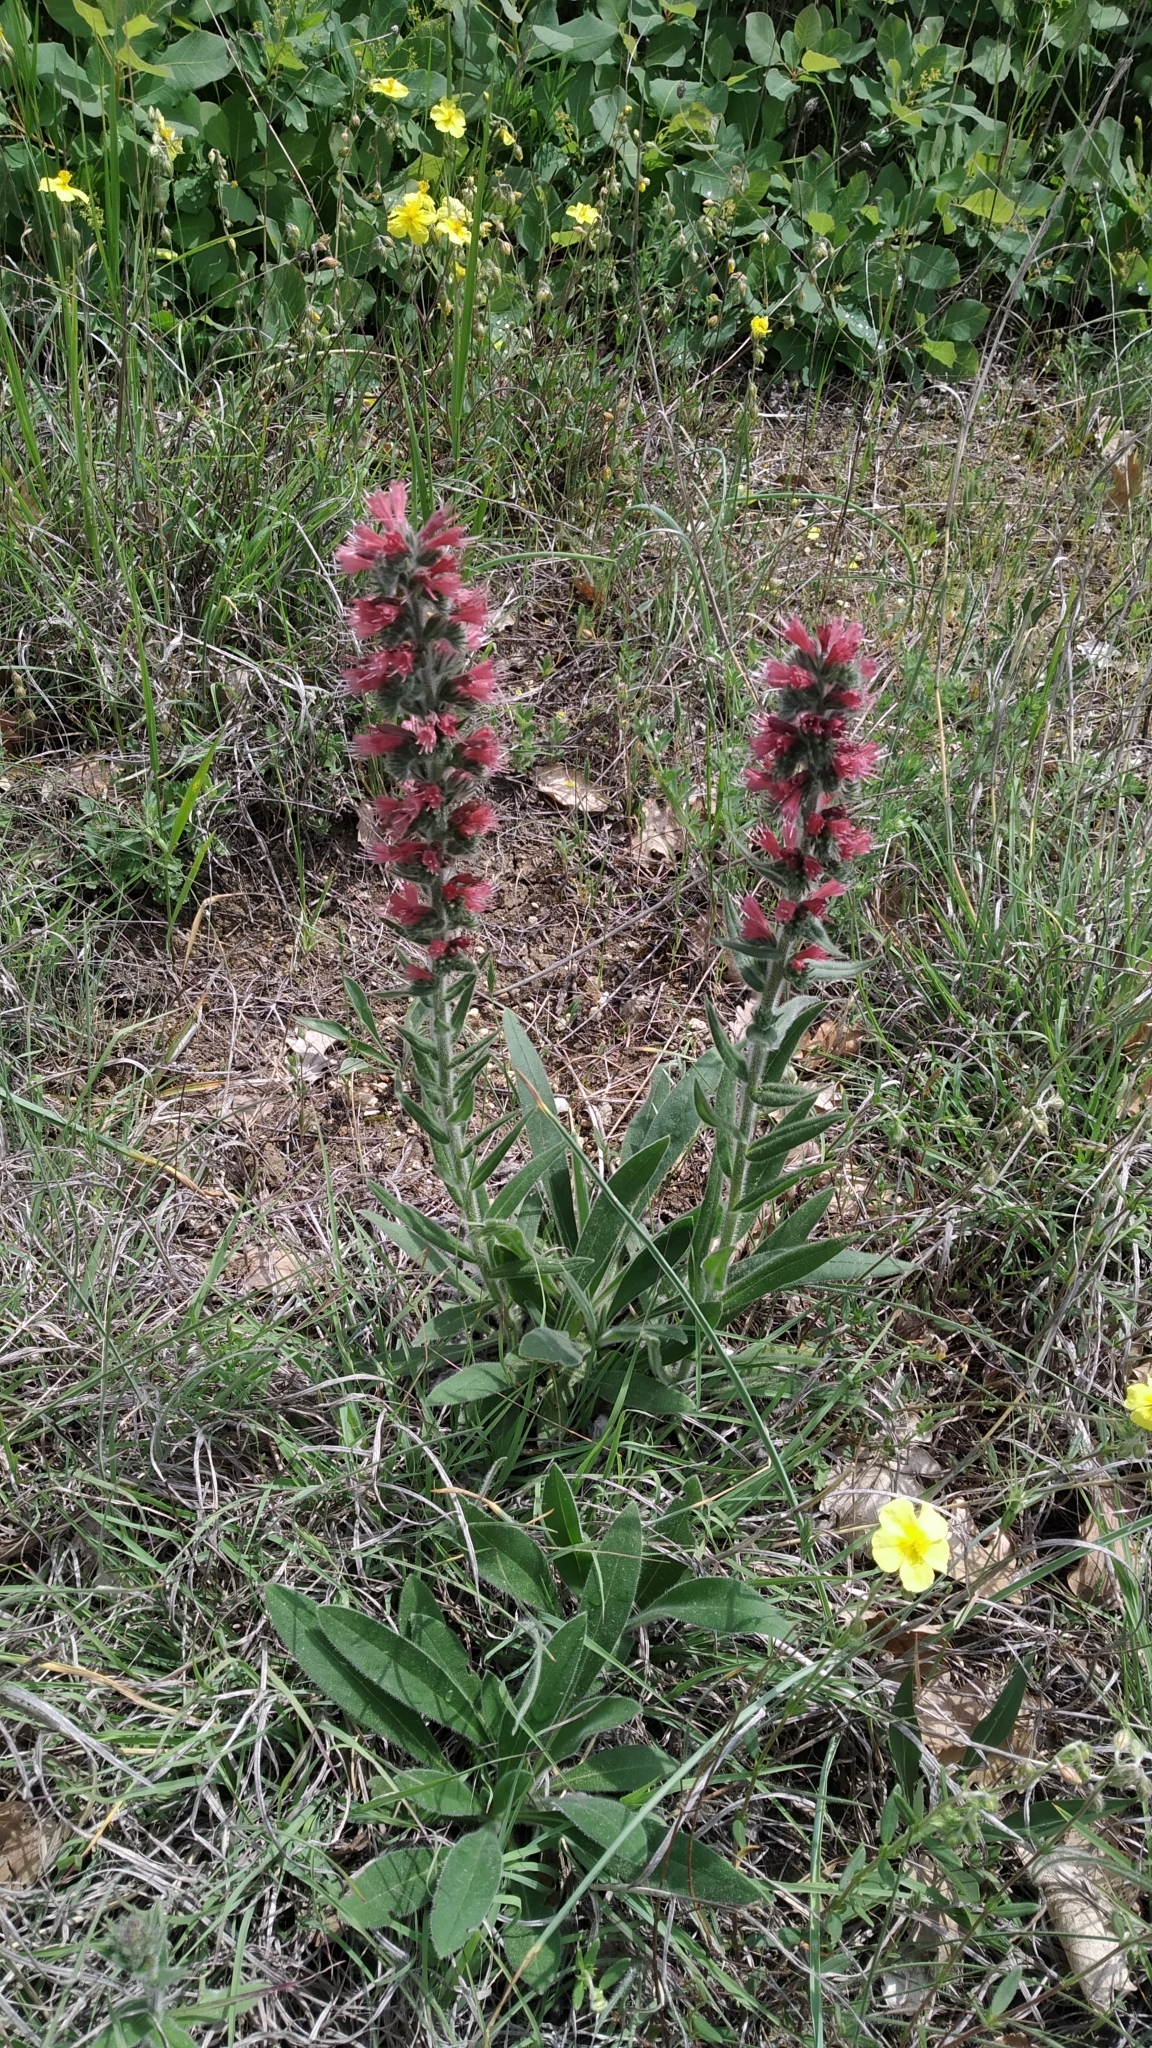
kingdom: Plantae
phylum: Tracheophyta
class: Magnoliopsida
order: Boraginales
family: Boraginaceae
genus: Pontechium
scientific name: Pontechium maculatum
